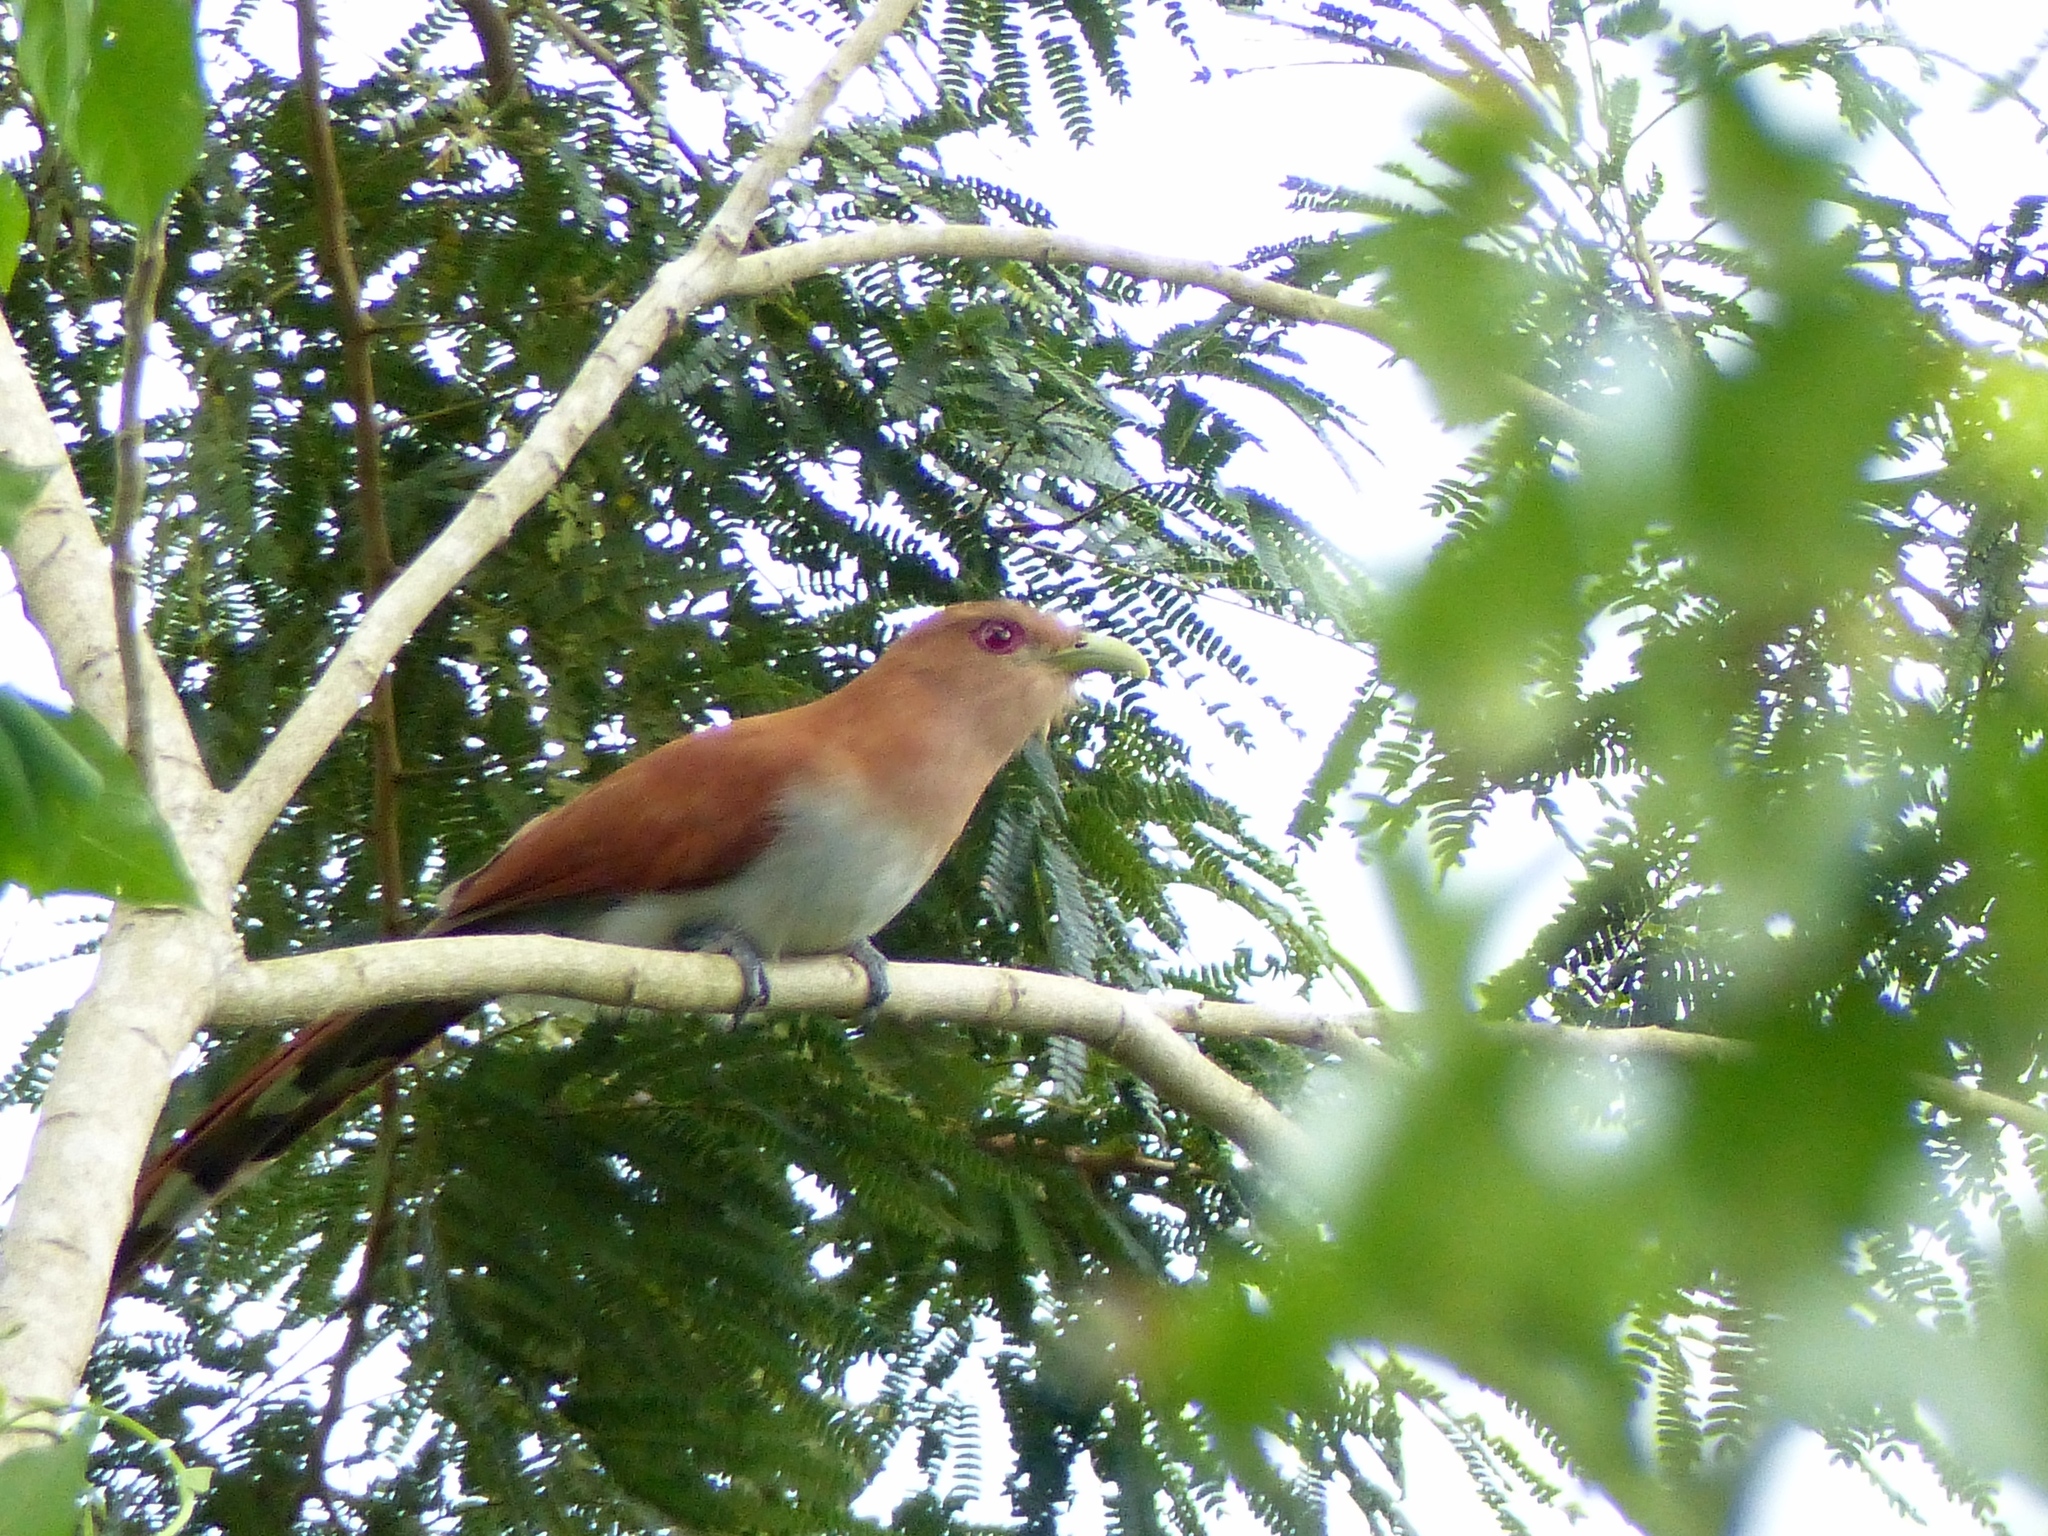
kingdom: Animalia
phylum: Chordata
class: Aves
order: Cuculiformes
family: Cuculidae
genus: Piaya
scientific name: Piaya cayana
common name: Squirrel cuckoo
